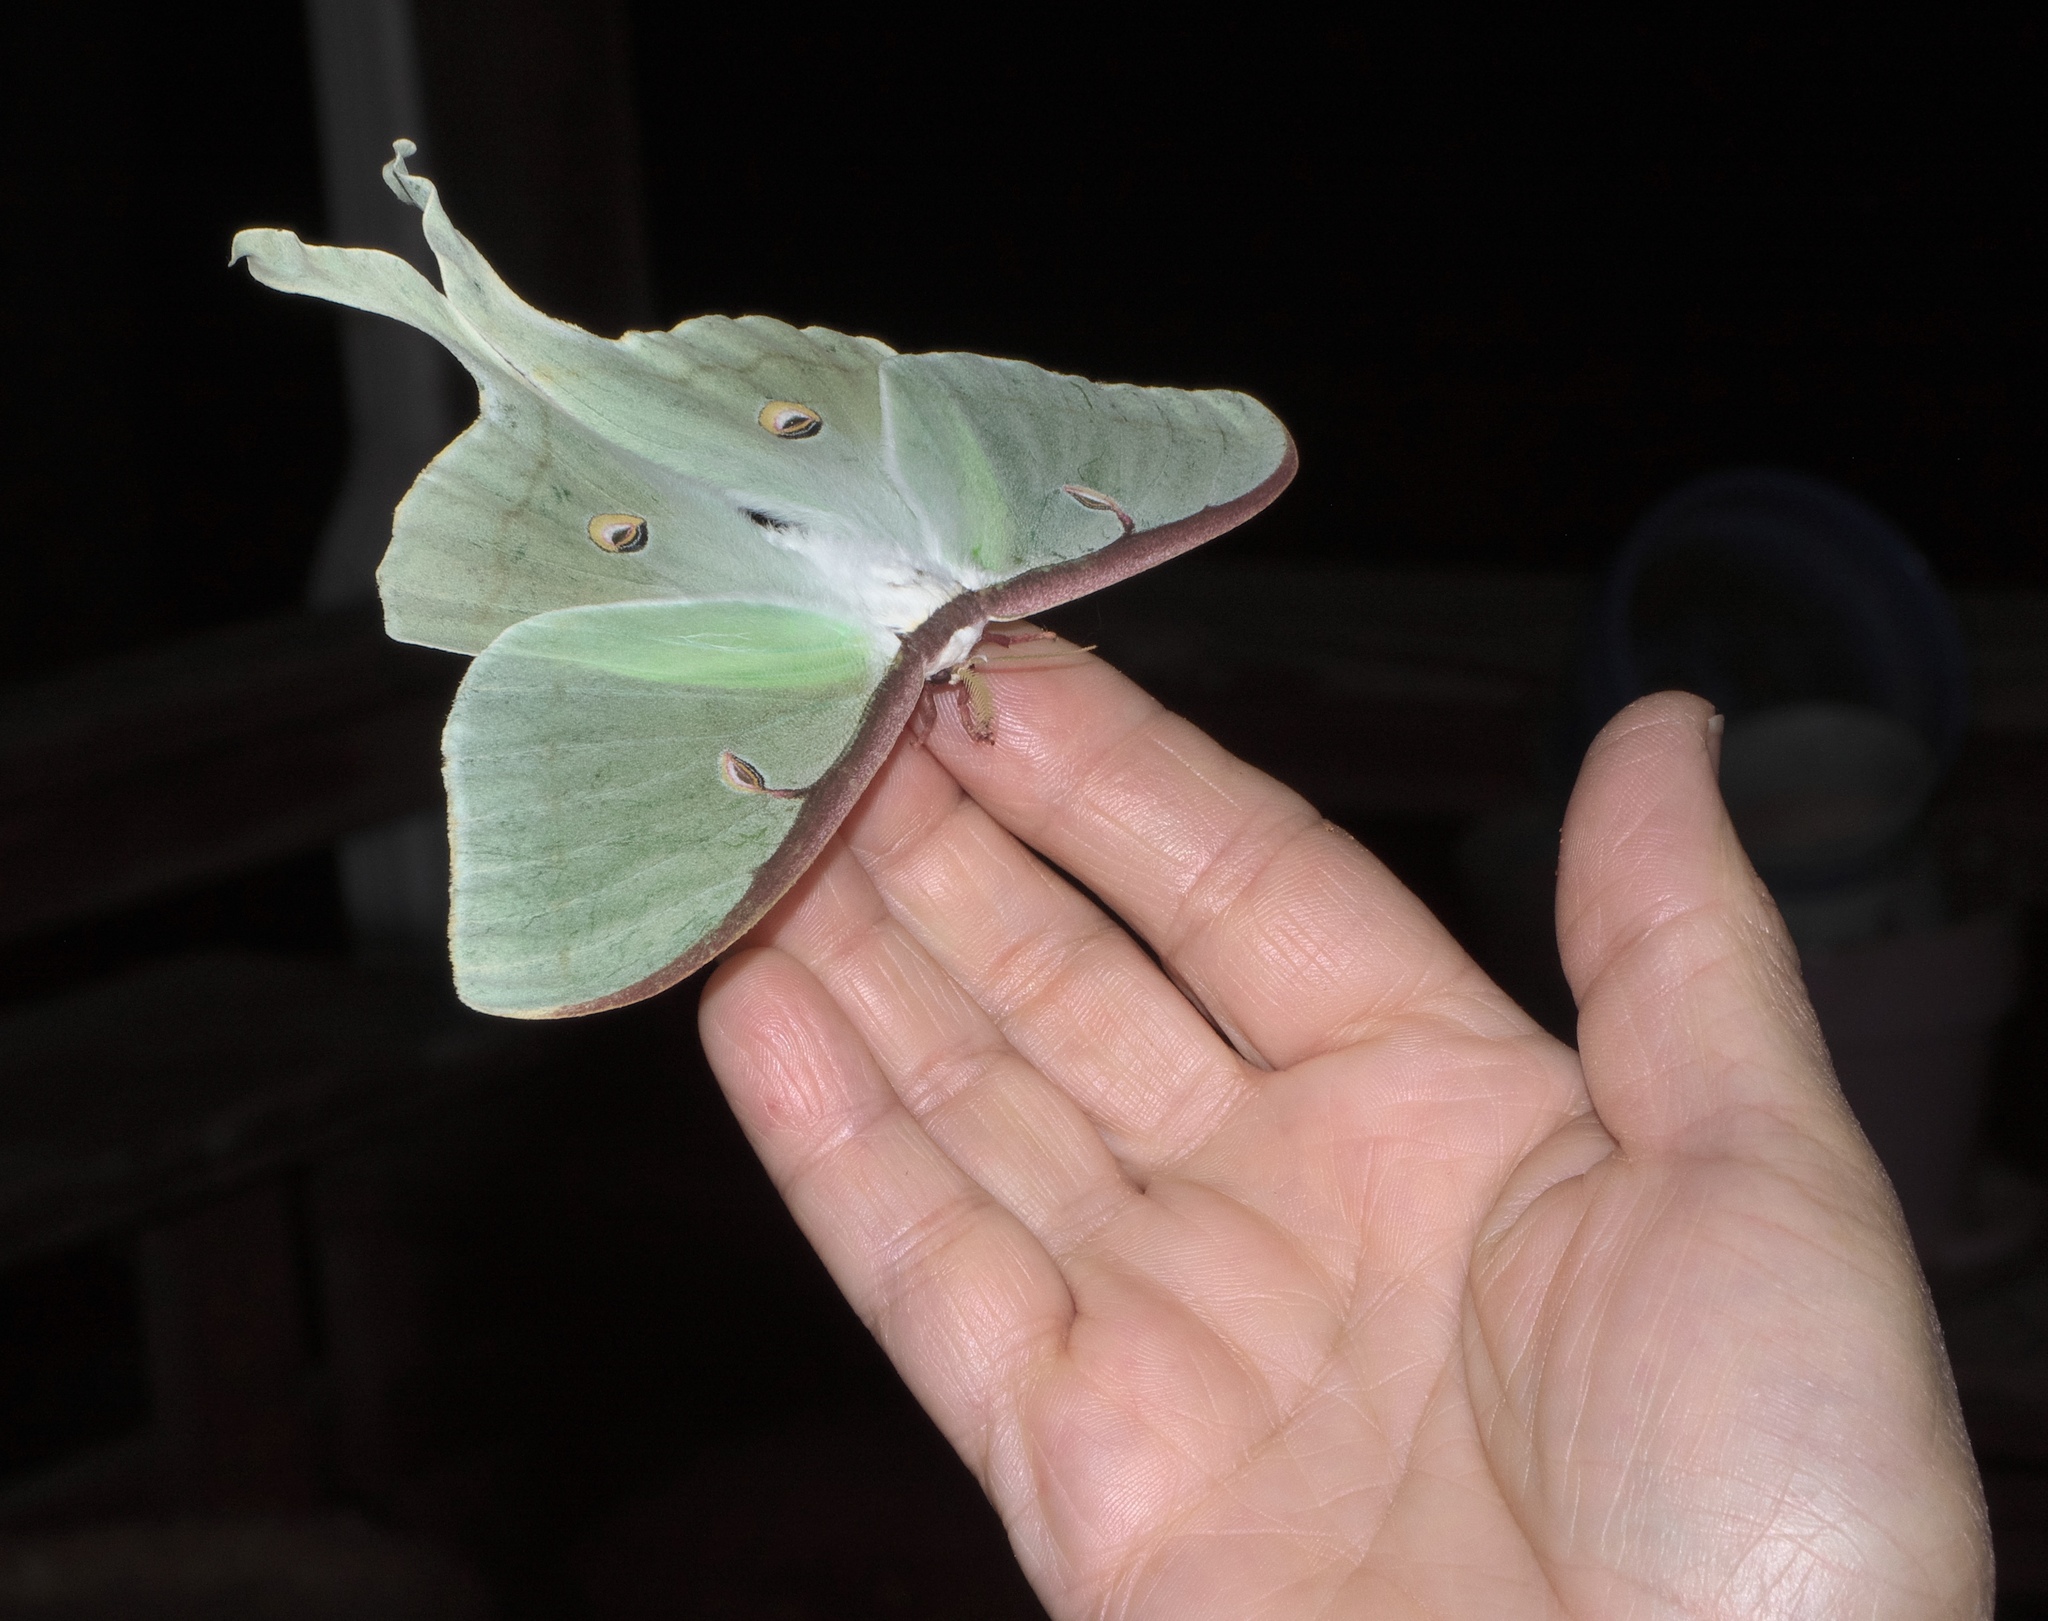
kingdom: Animalia
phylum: Arthropoda
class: Insecta
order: Lepidoptera
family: Saturniidae
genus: Actias
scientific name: Actias luna
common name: Luna moth
